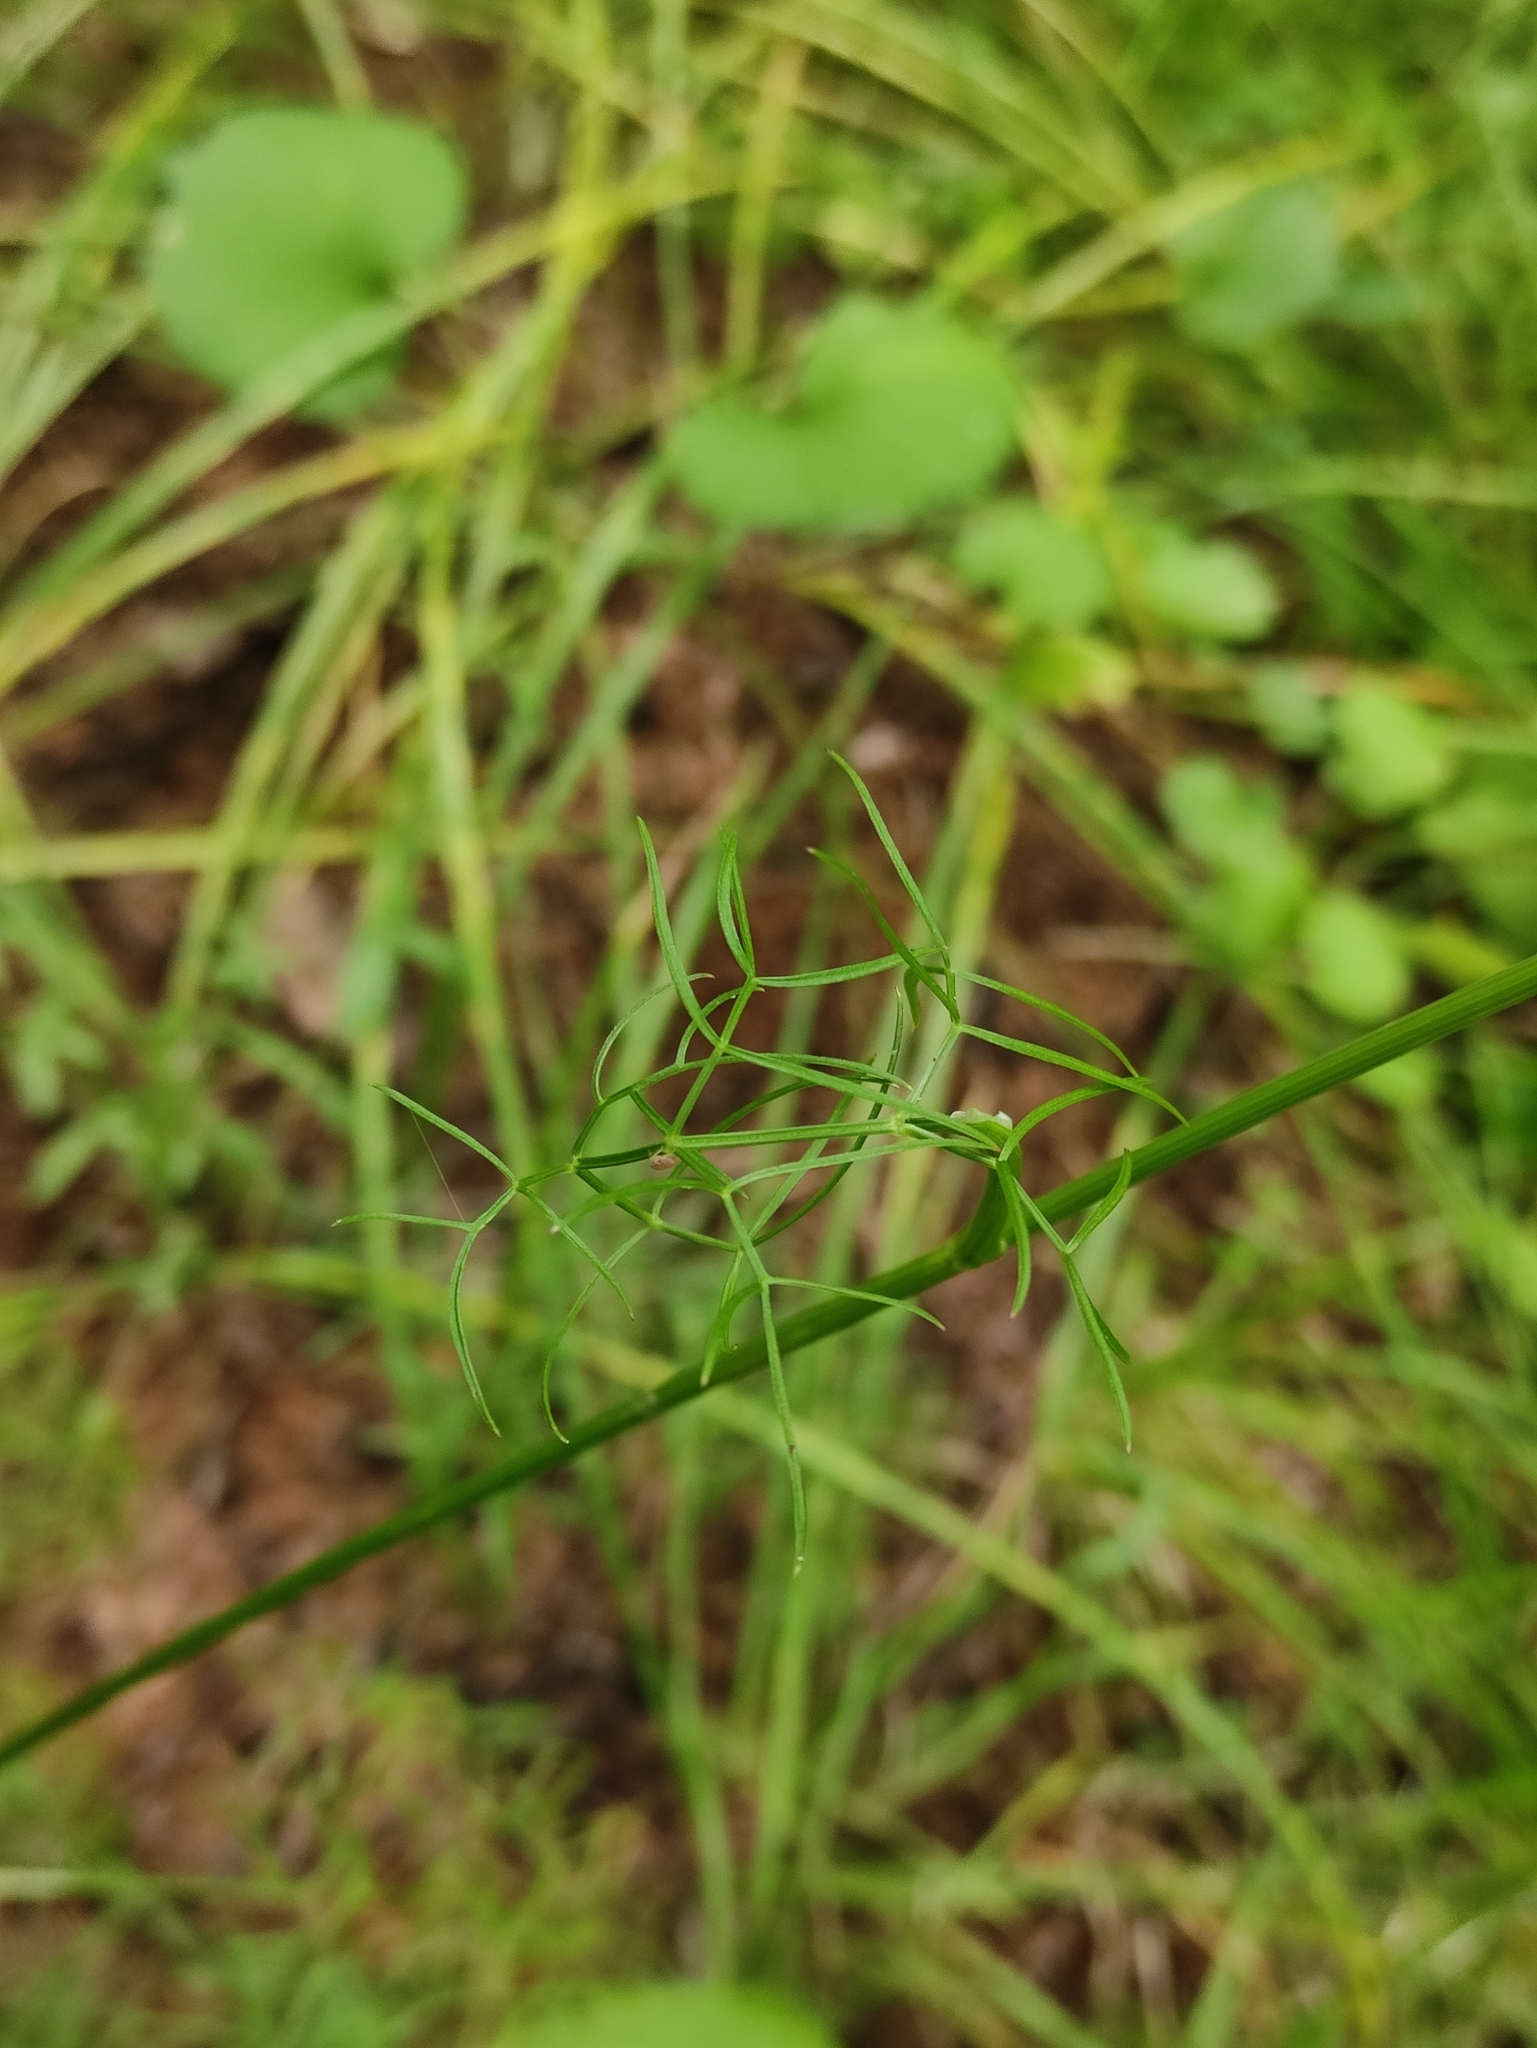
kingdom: Plantae
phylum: Tracheophyta
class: Magnoliopsida
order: Apiales
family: Apiaceae
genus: Ostericum
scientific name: Ostericum tenuifolium
